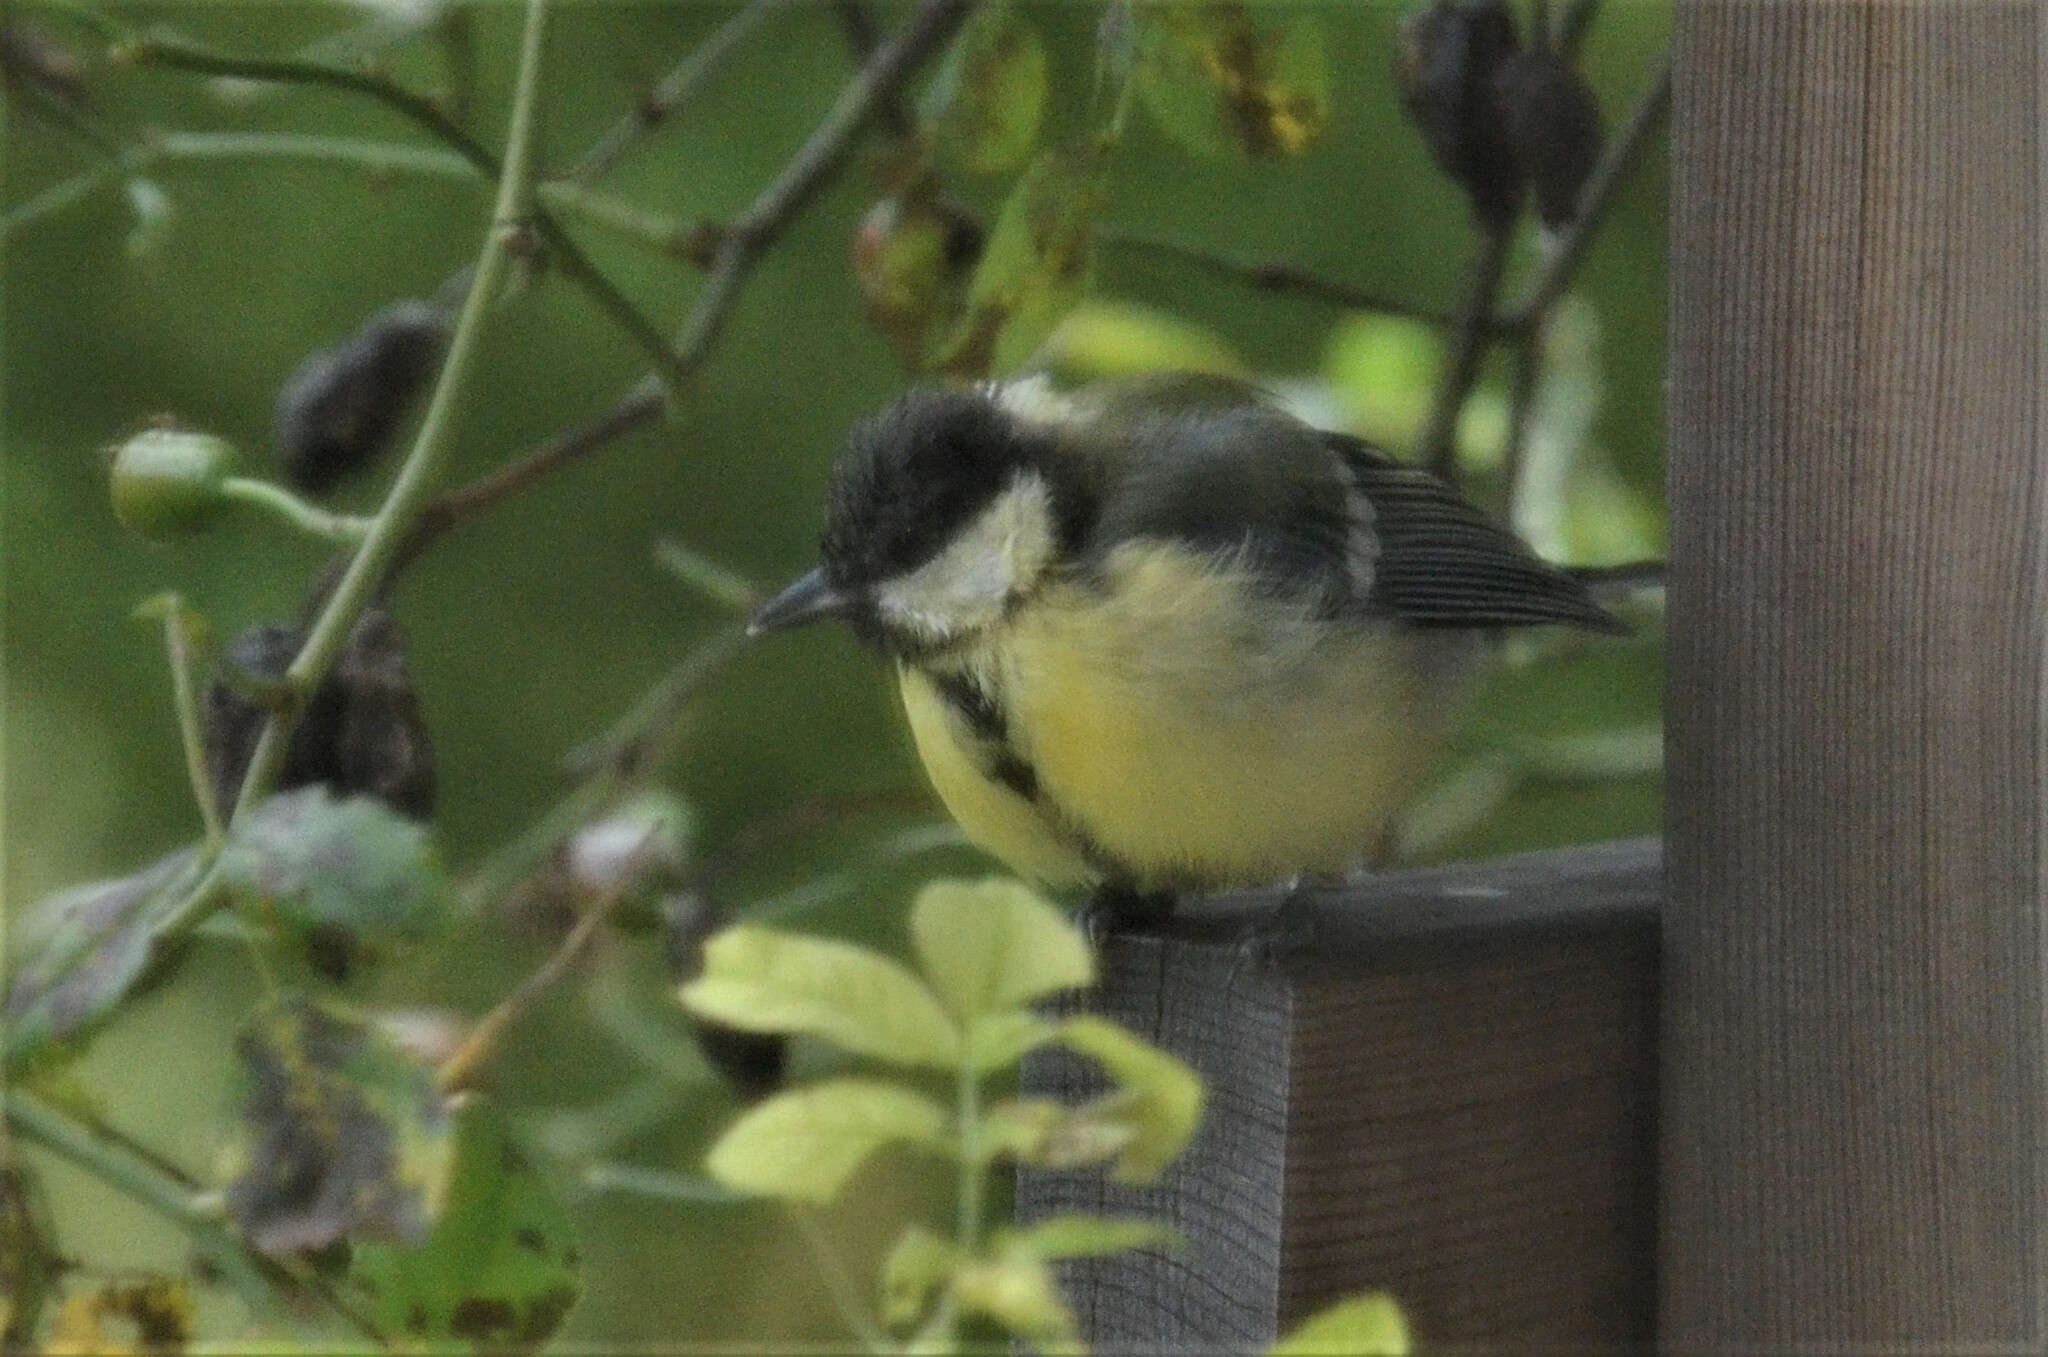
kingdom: Animalia
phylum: Chordata
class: Aves
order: Passeriformes
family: Paridae
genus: Parus
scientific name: Parus major
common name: Great tit
